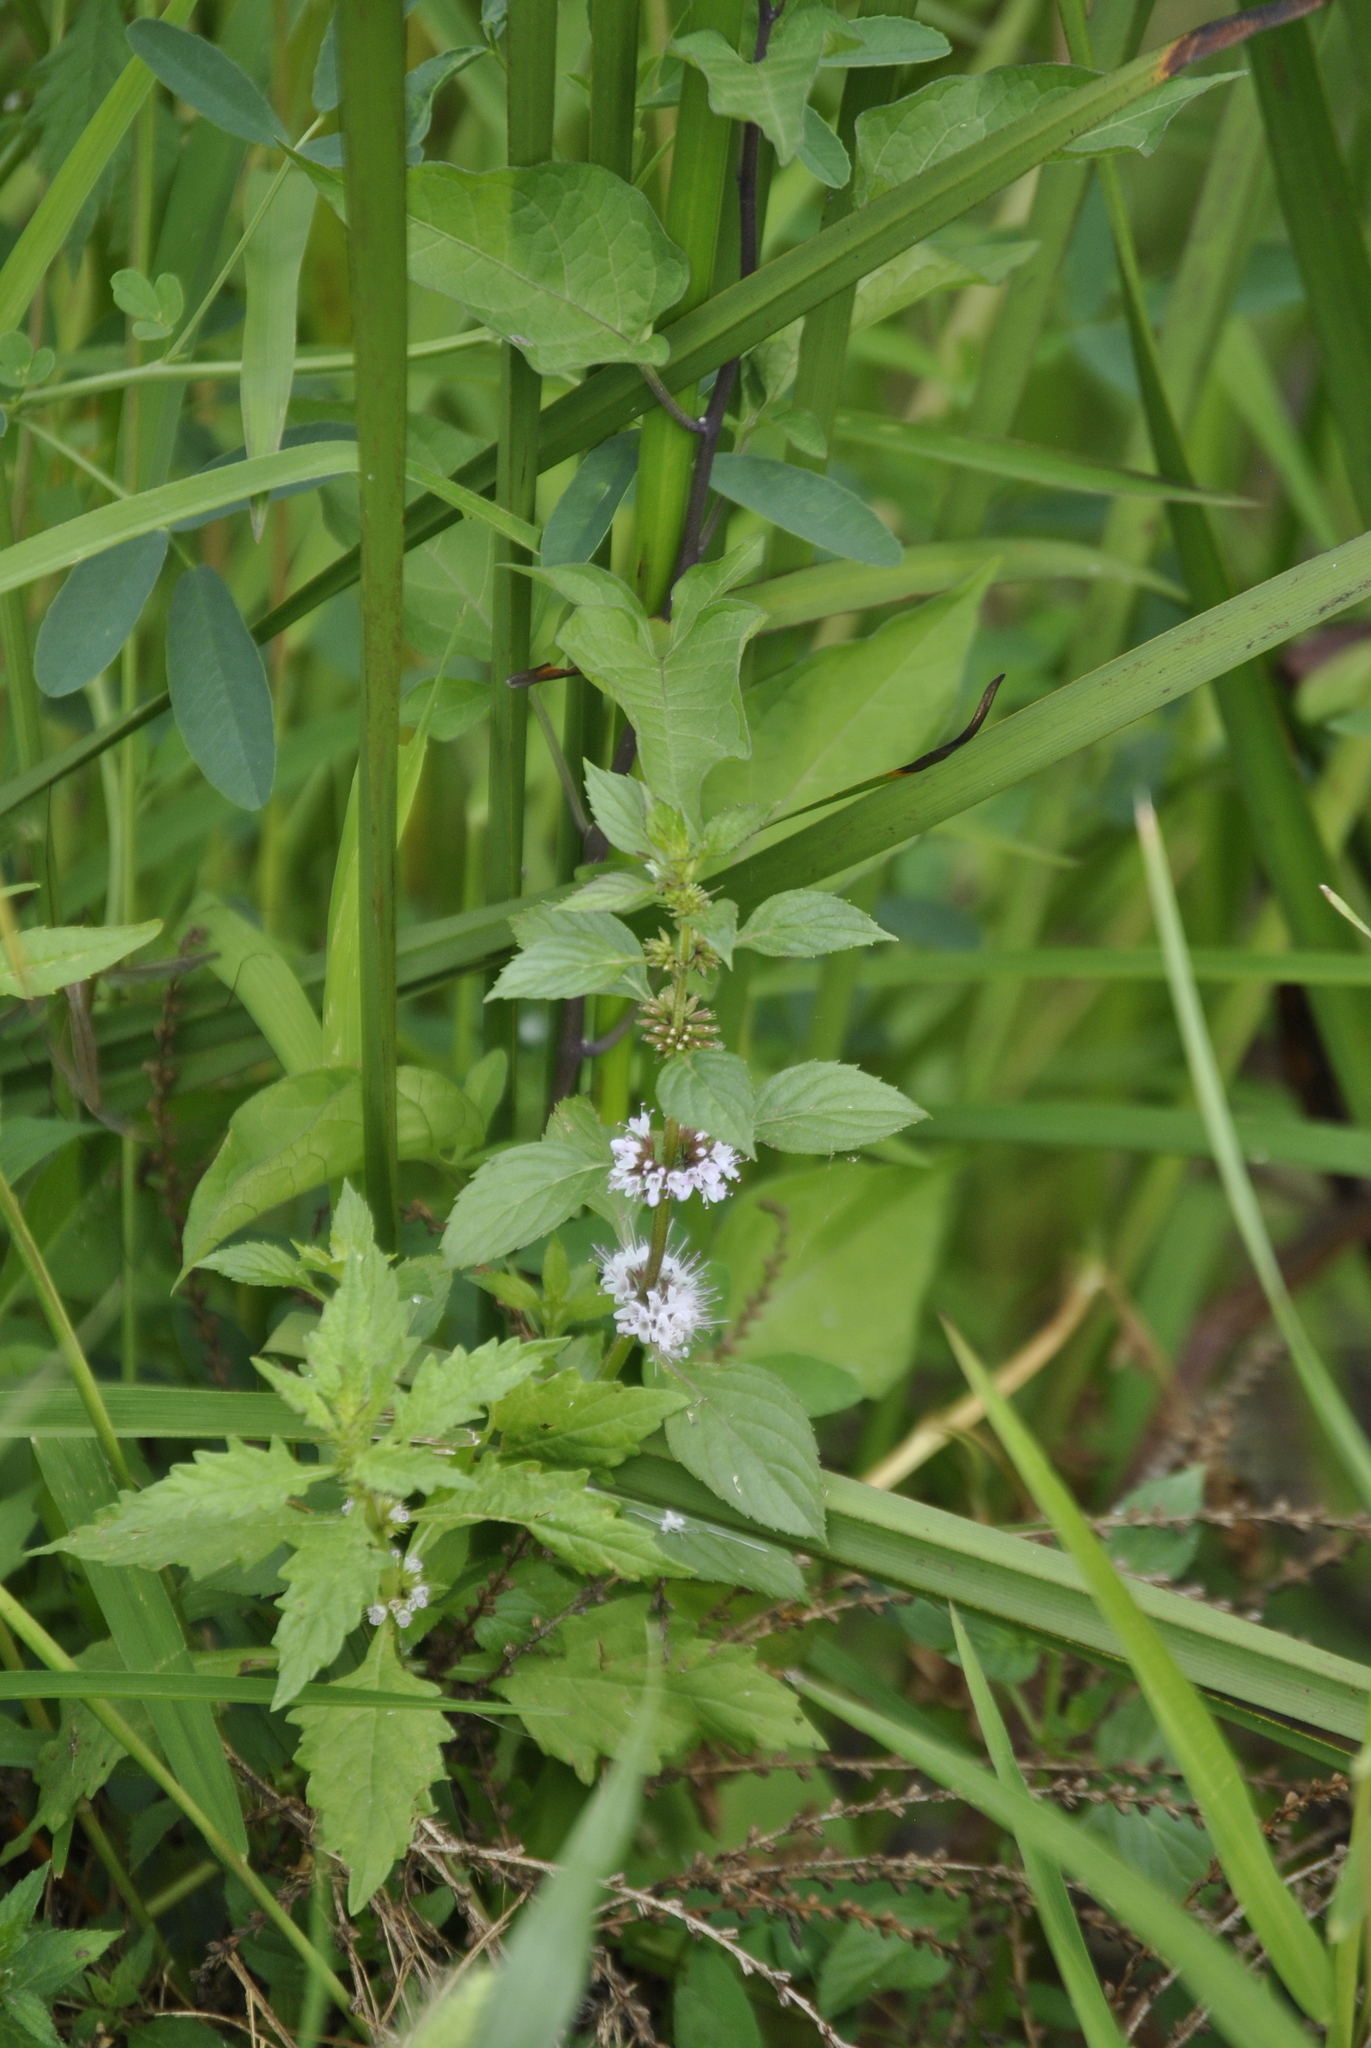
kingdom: Plantae
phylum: Tracheophyta
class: Magnoliopsida
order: Lamiales
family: Lamiaceae
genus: Mentha
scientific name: Mentha canadensis
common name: American corn mint
